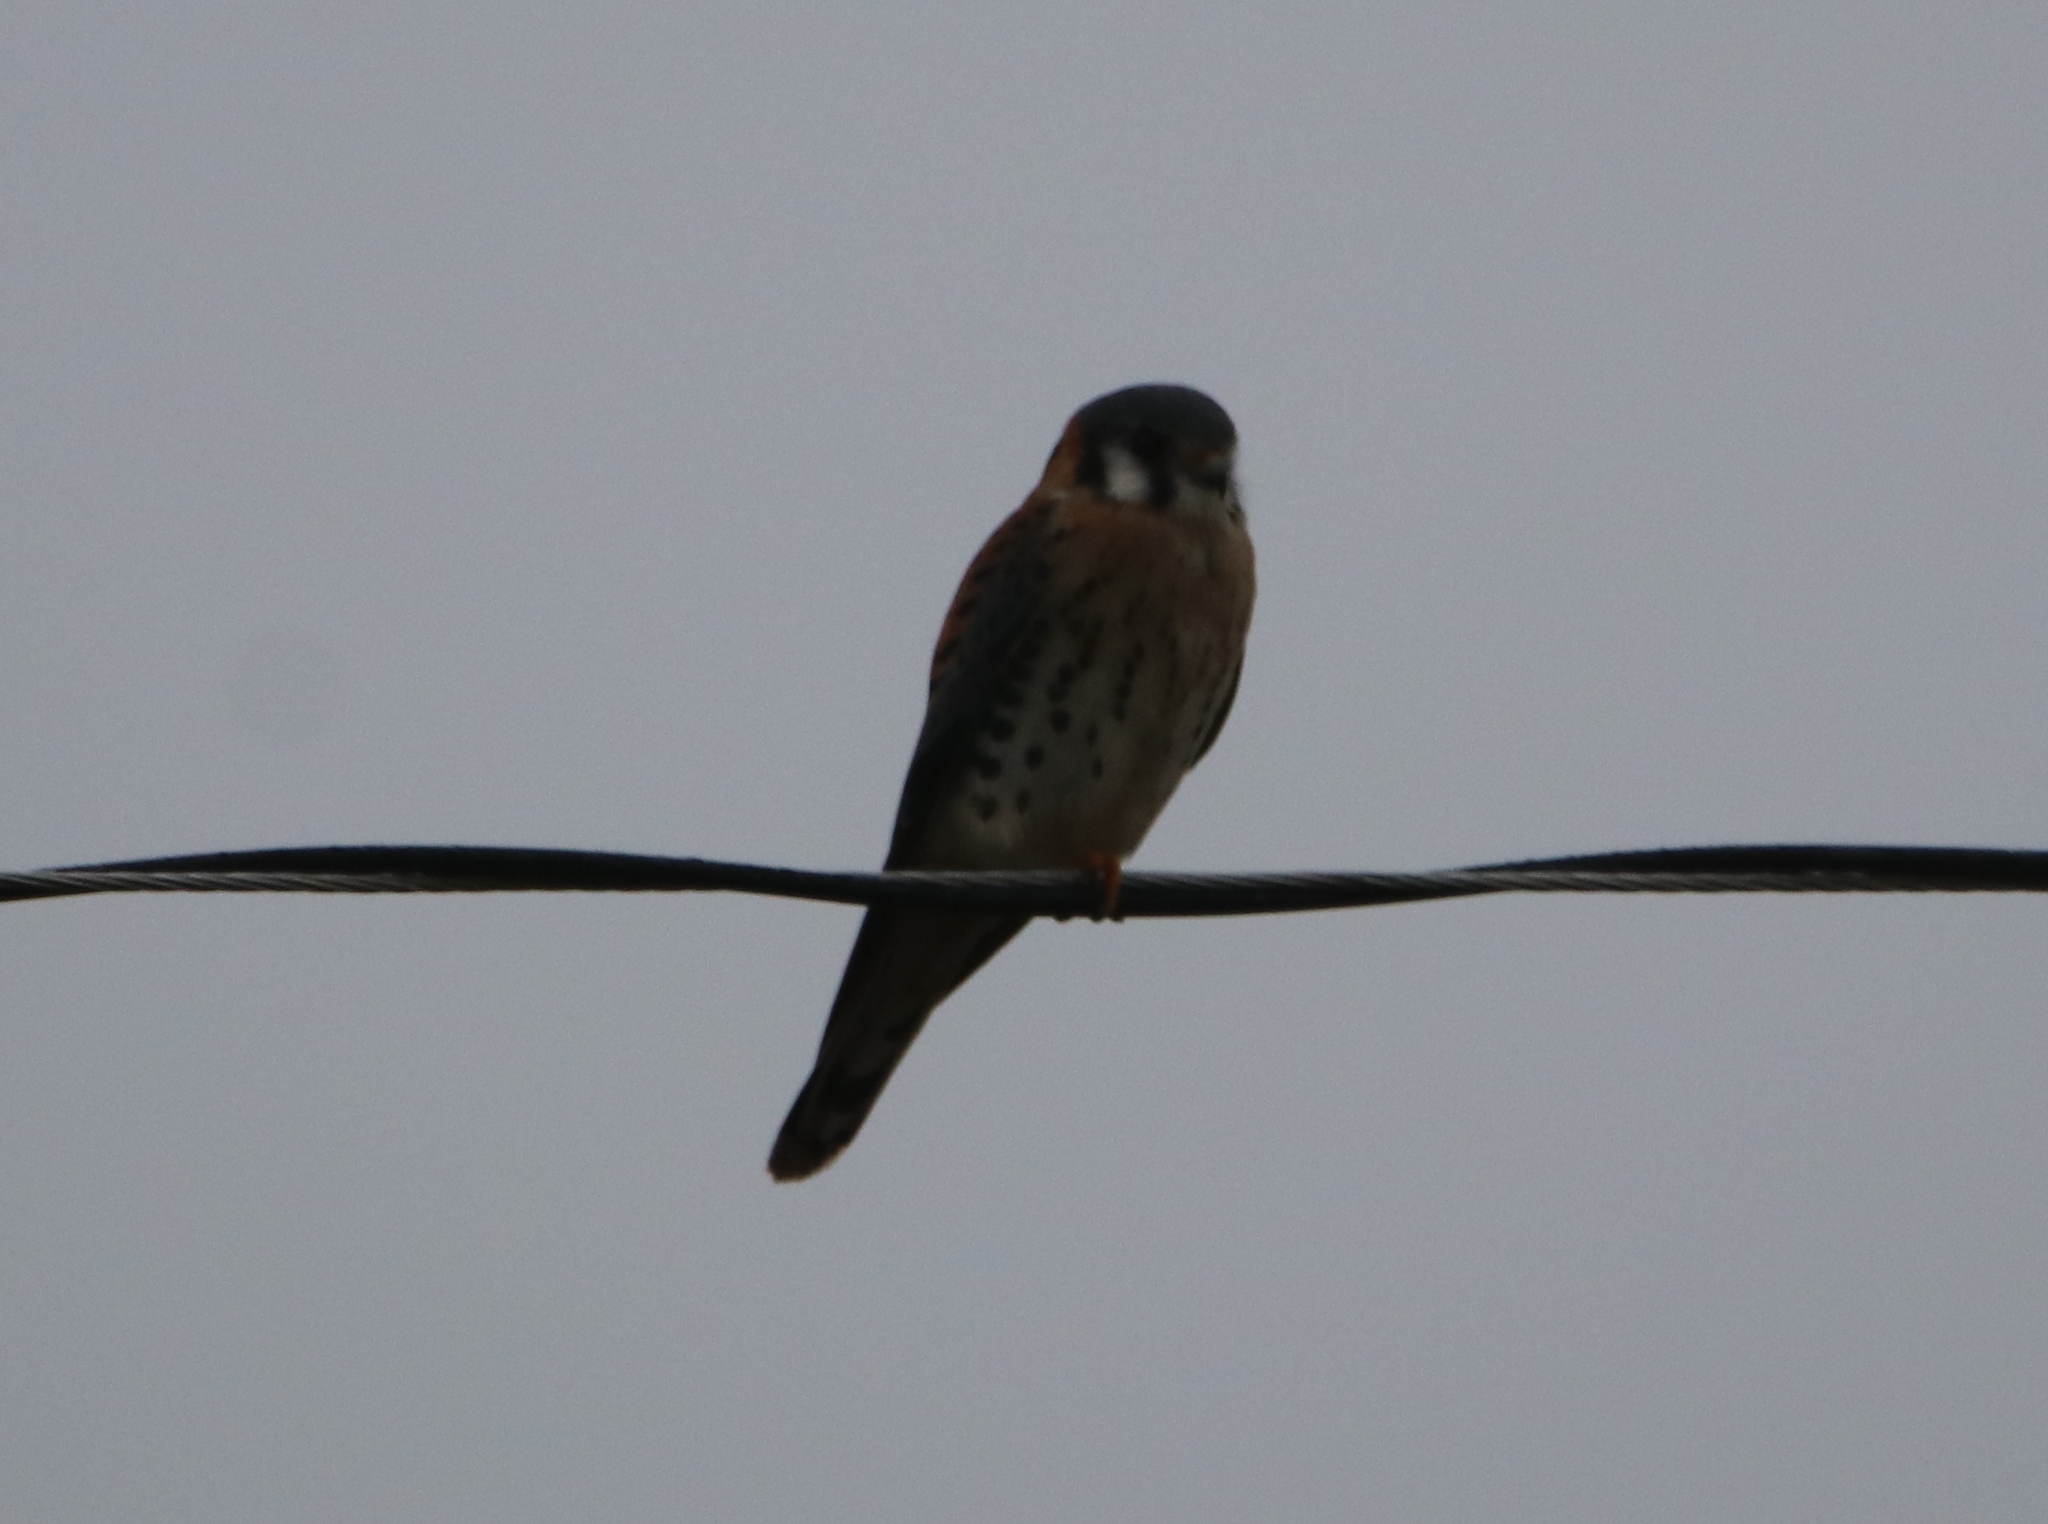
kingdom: Animalia
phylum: Chordata
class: Aves
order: Falconiformes
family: Falconidae
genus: Falco
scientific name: Falco sparverius
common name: American kestrel
